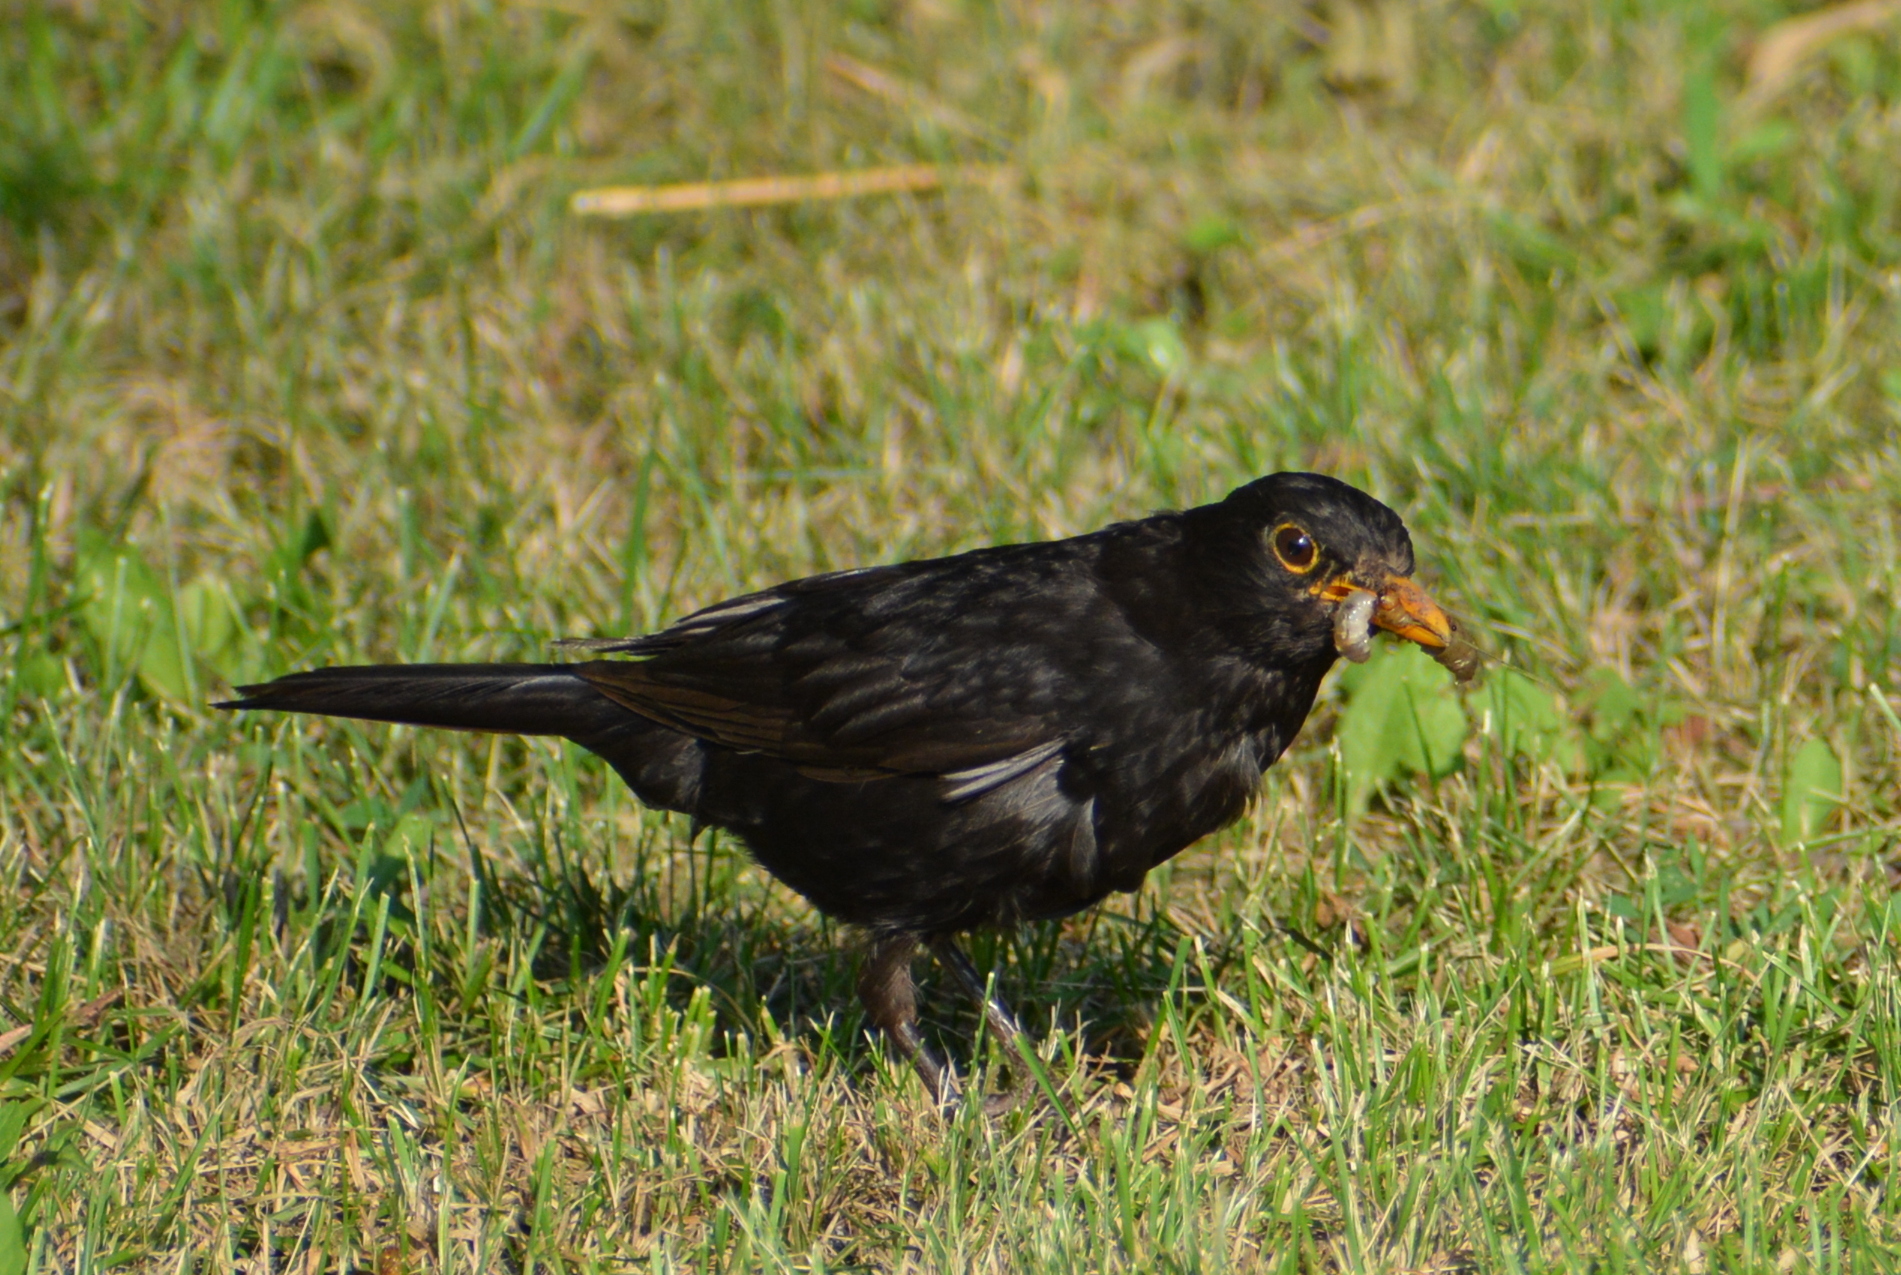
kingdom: Animalia
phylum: Chordata
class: Aves
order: Passeriformes
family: Turdidae
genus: Turdus
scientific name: Turdus merula
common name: Common blackbird
